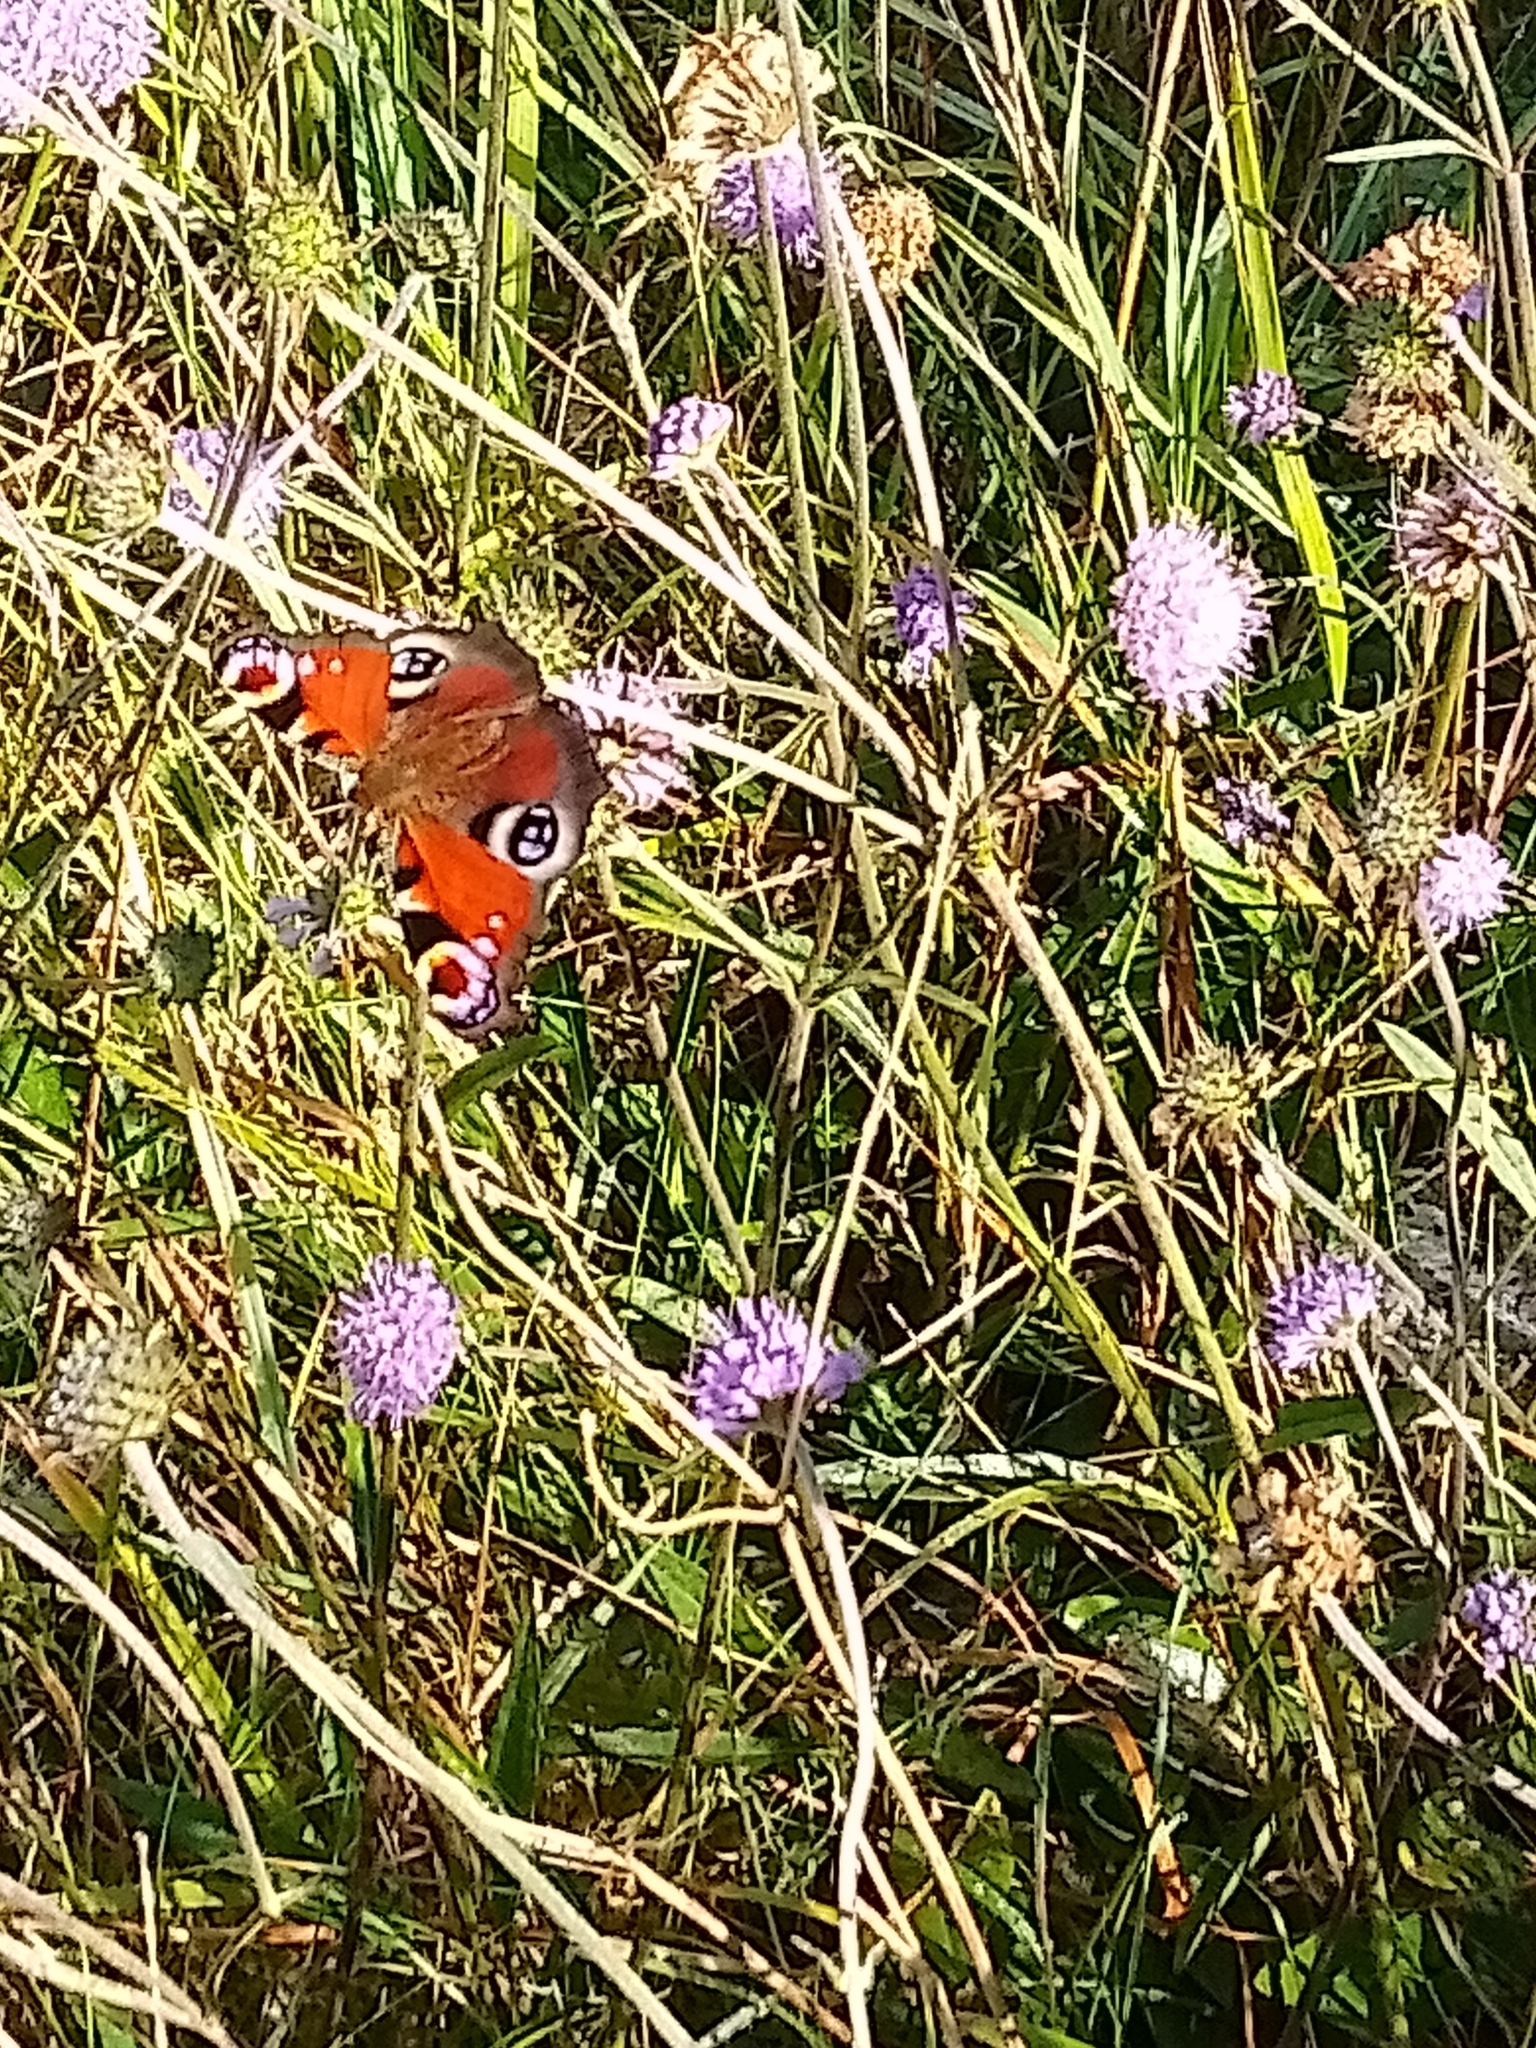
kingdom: Animalia
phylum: Arthropoda
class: Insecta
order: Lepidoptera
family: Nymphalidae
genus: Aglais
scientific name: Aglais io
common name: Peacock
